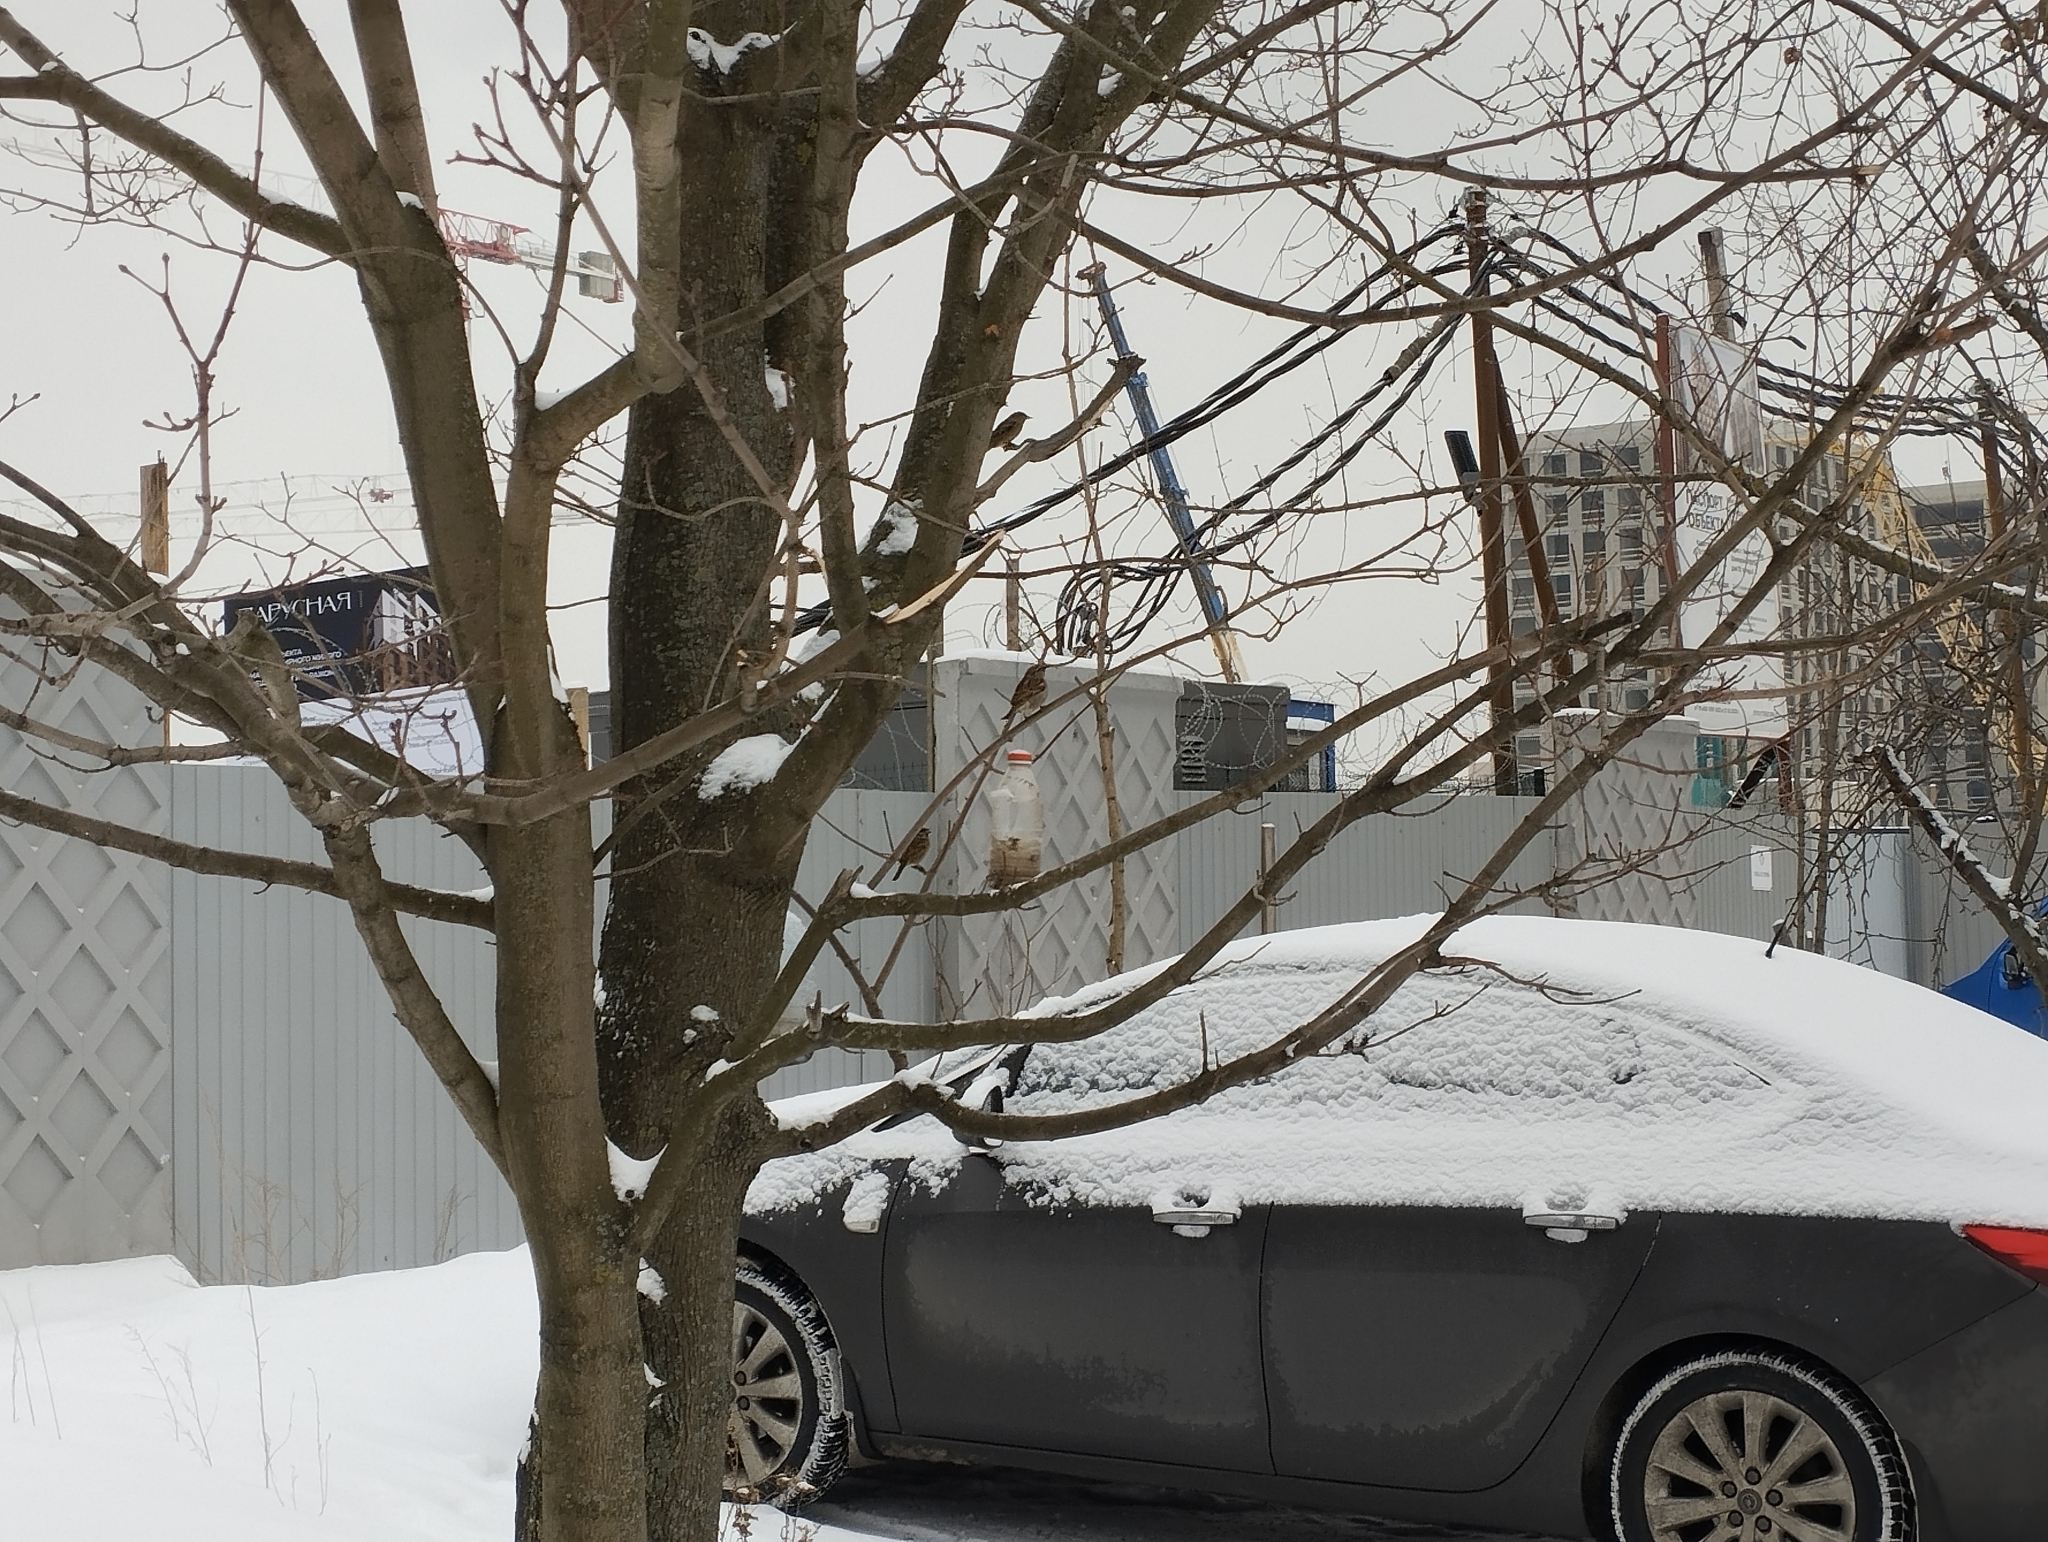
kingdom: Animalia
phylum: Chordata
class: Aves
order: Passeriformes
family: Passeridae
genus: Passer
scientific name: Passer montanus
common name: Eurasian tree sparrow
